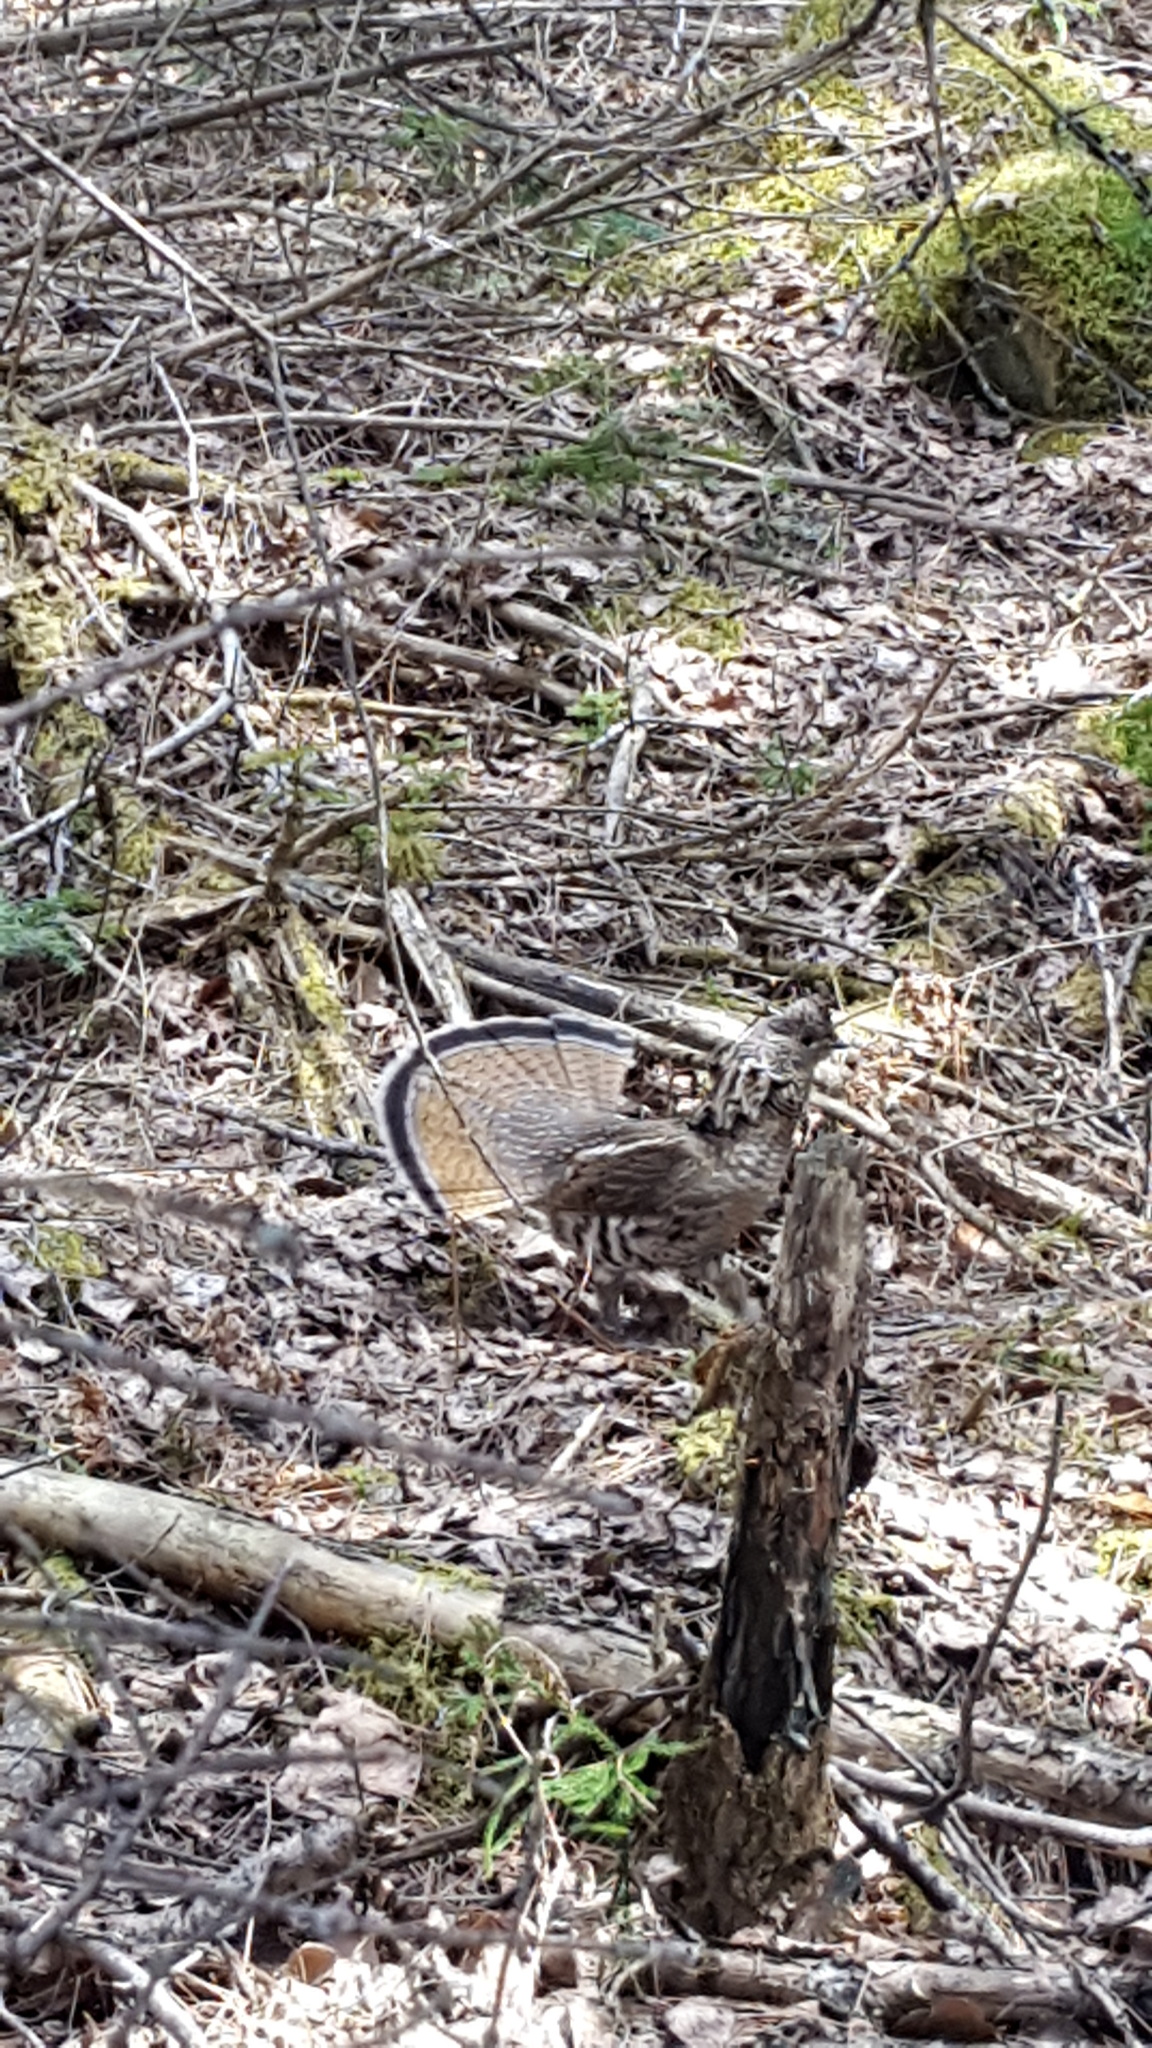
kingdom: Animalia
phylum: Chordata
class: Aves
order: Galliformes
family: Phasianidae
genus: Bonasa
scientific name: Bonasa umbellus
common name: Ruffed grouse
